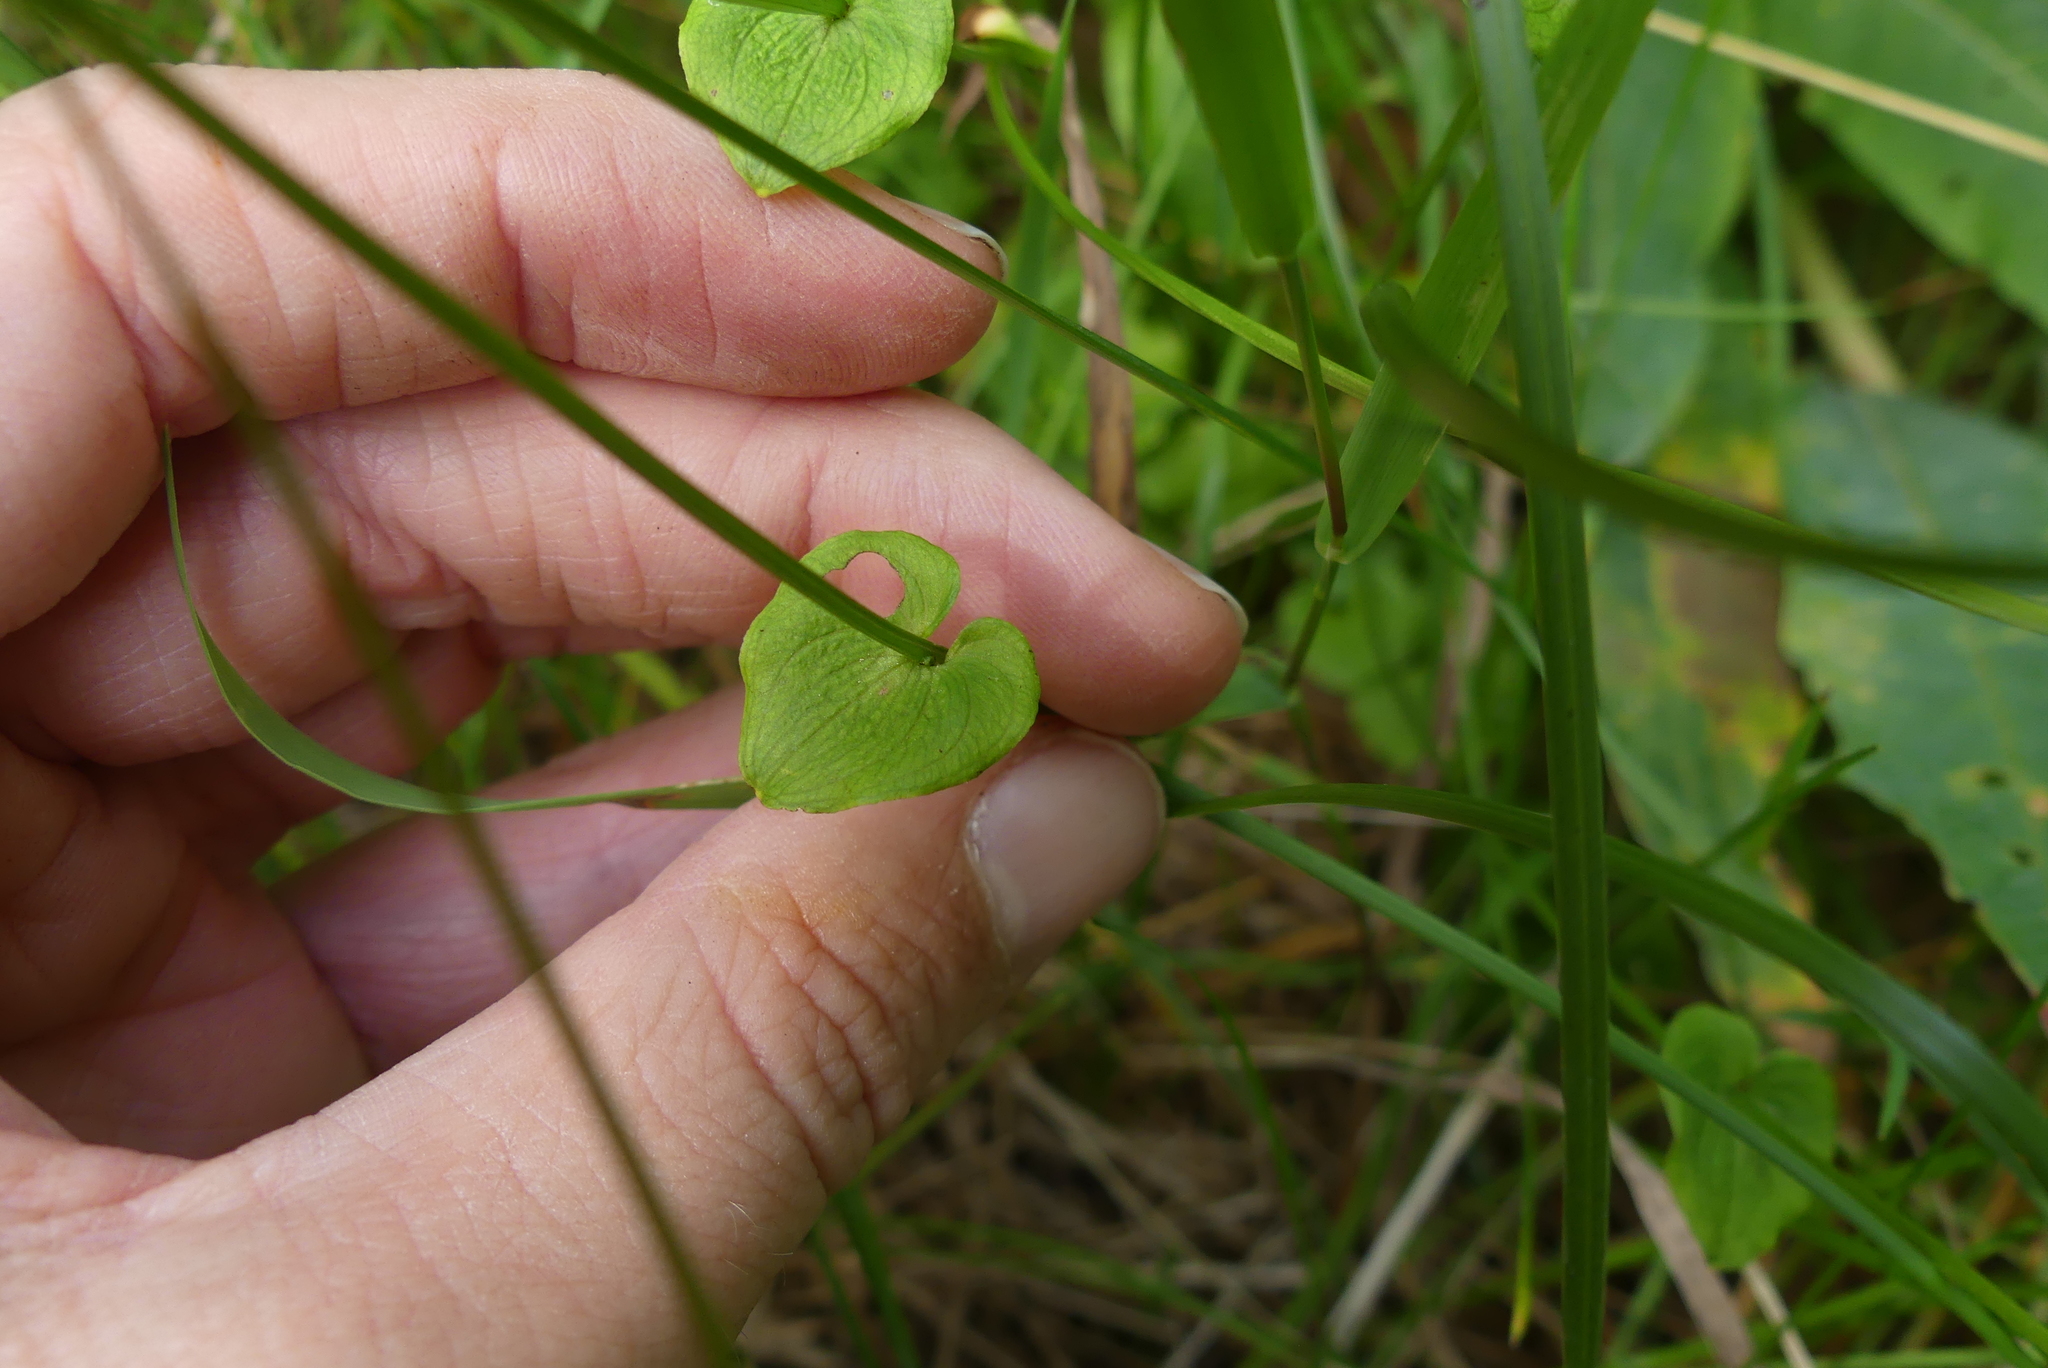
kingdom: Plantae
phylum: Tracheophyta
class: Magnoliopsida
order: Celastrales
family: Parnassiaceae
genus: Parnassia
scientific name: Parnassia fimbriata
